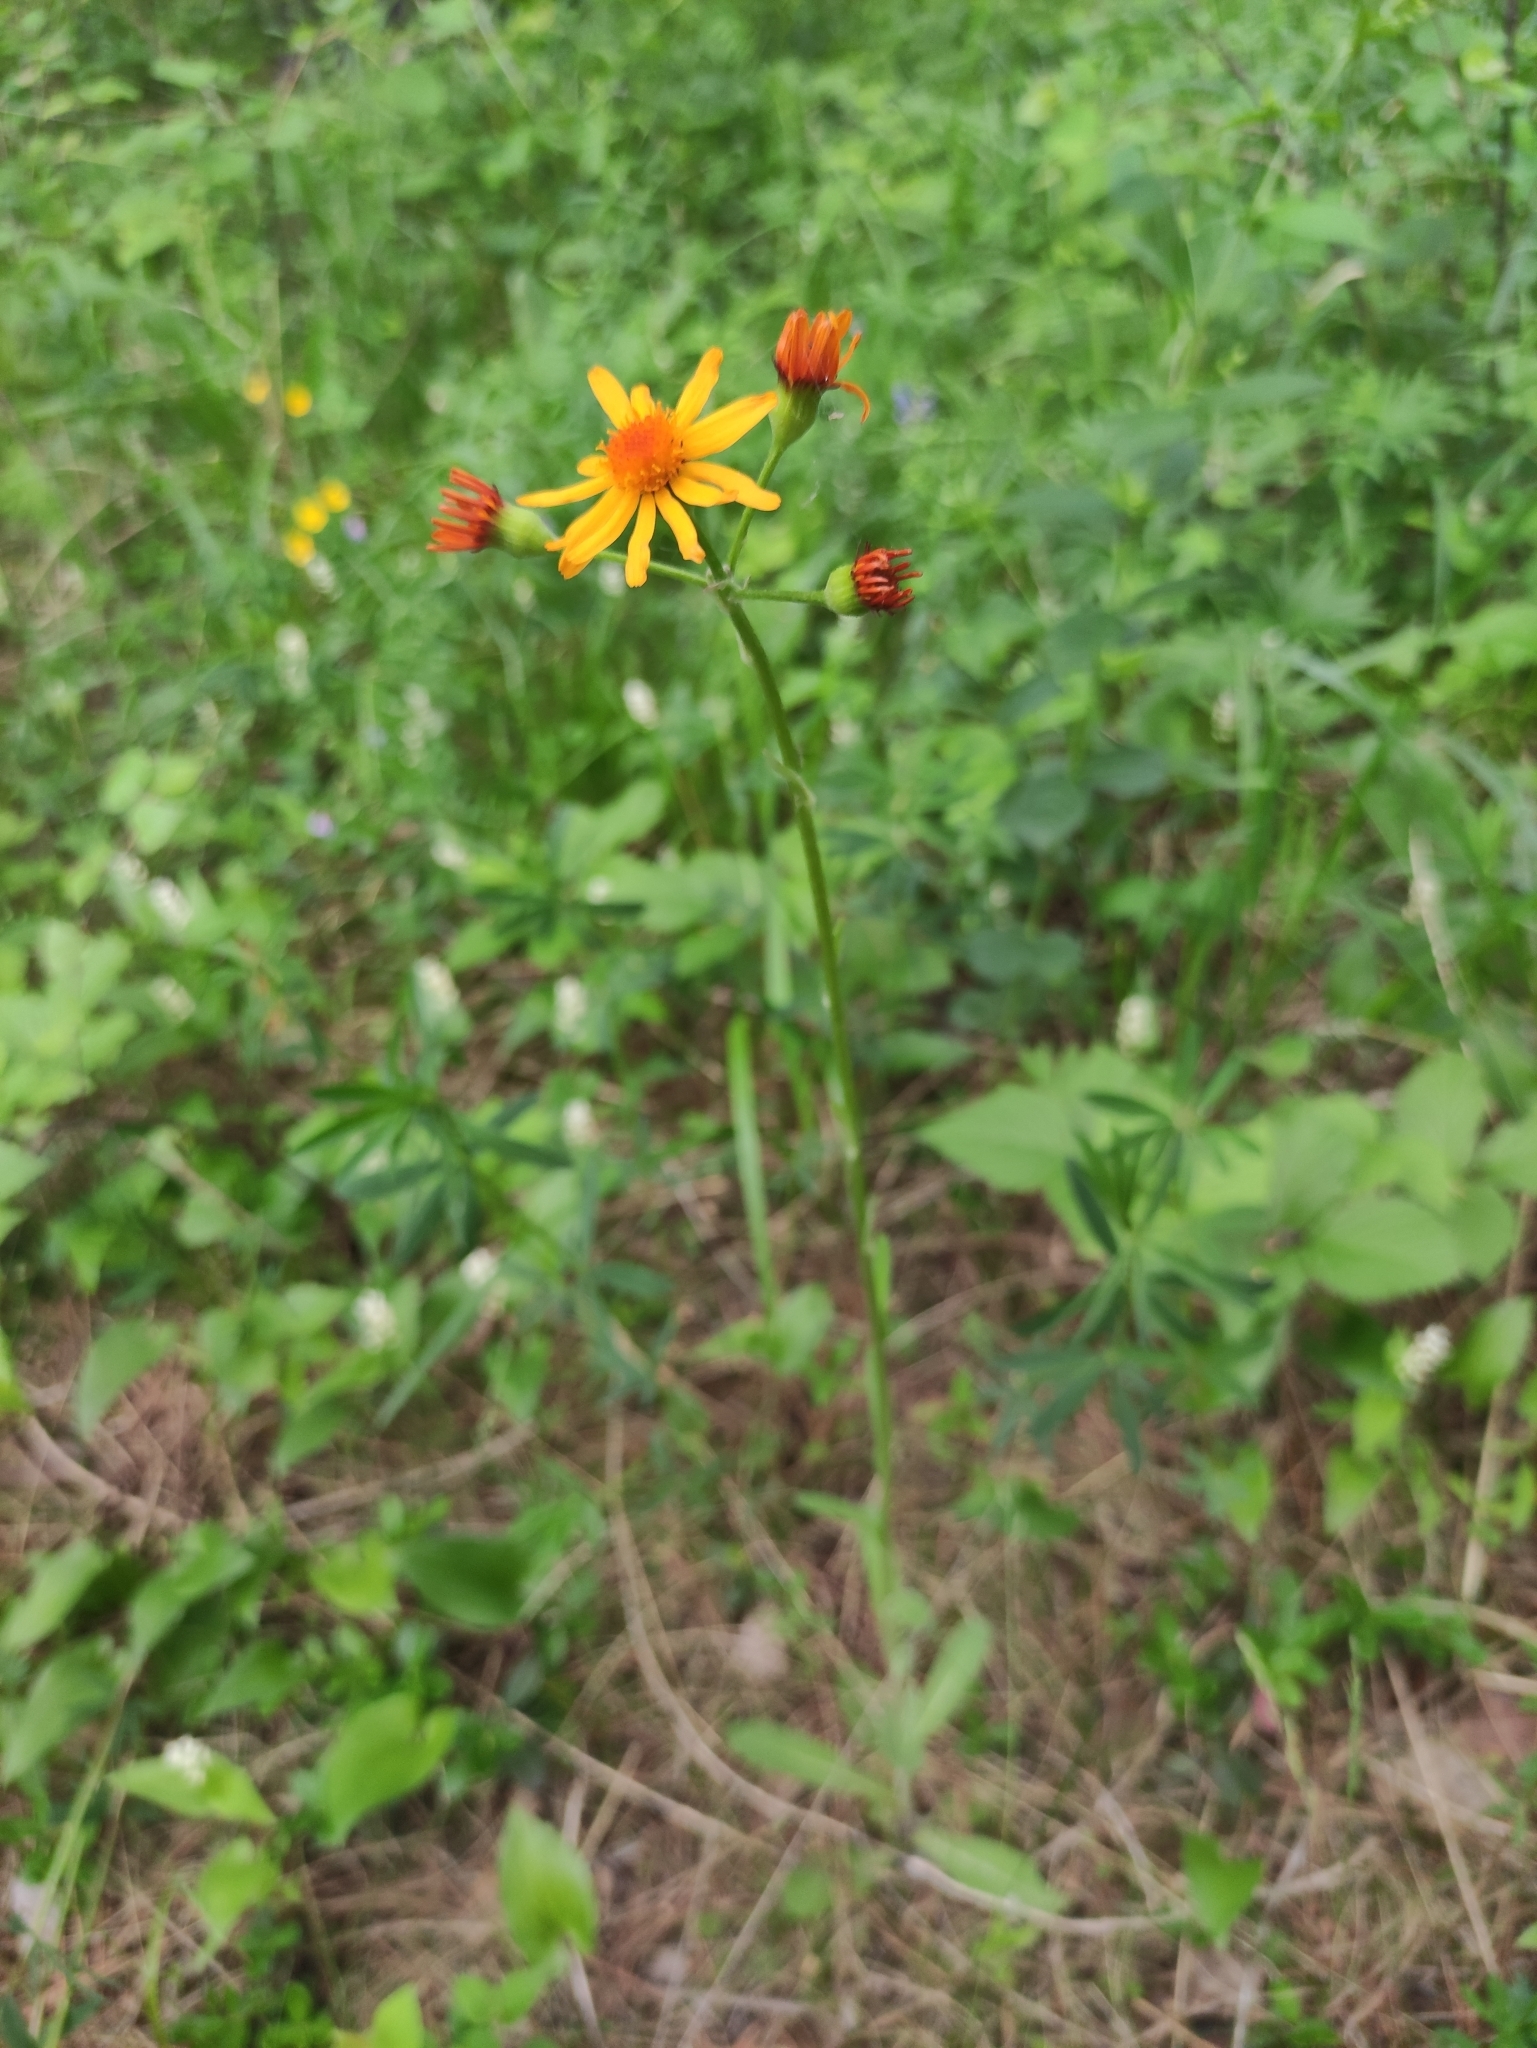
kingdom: Plantae
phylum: Tracheophyta
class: Magnoliopsida
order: Asterales
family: Asteraceae
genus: Tephroseris
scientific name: Tephroseris porphyrantha
